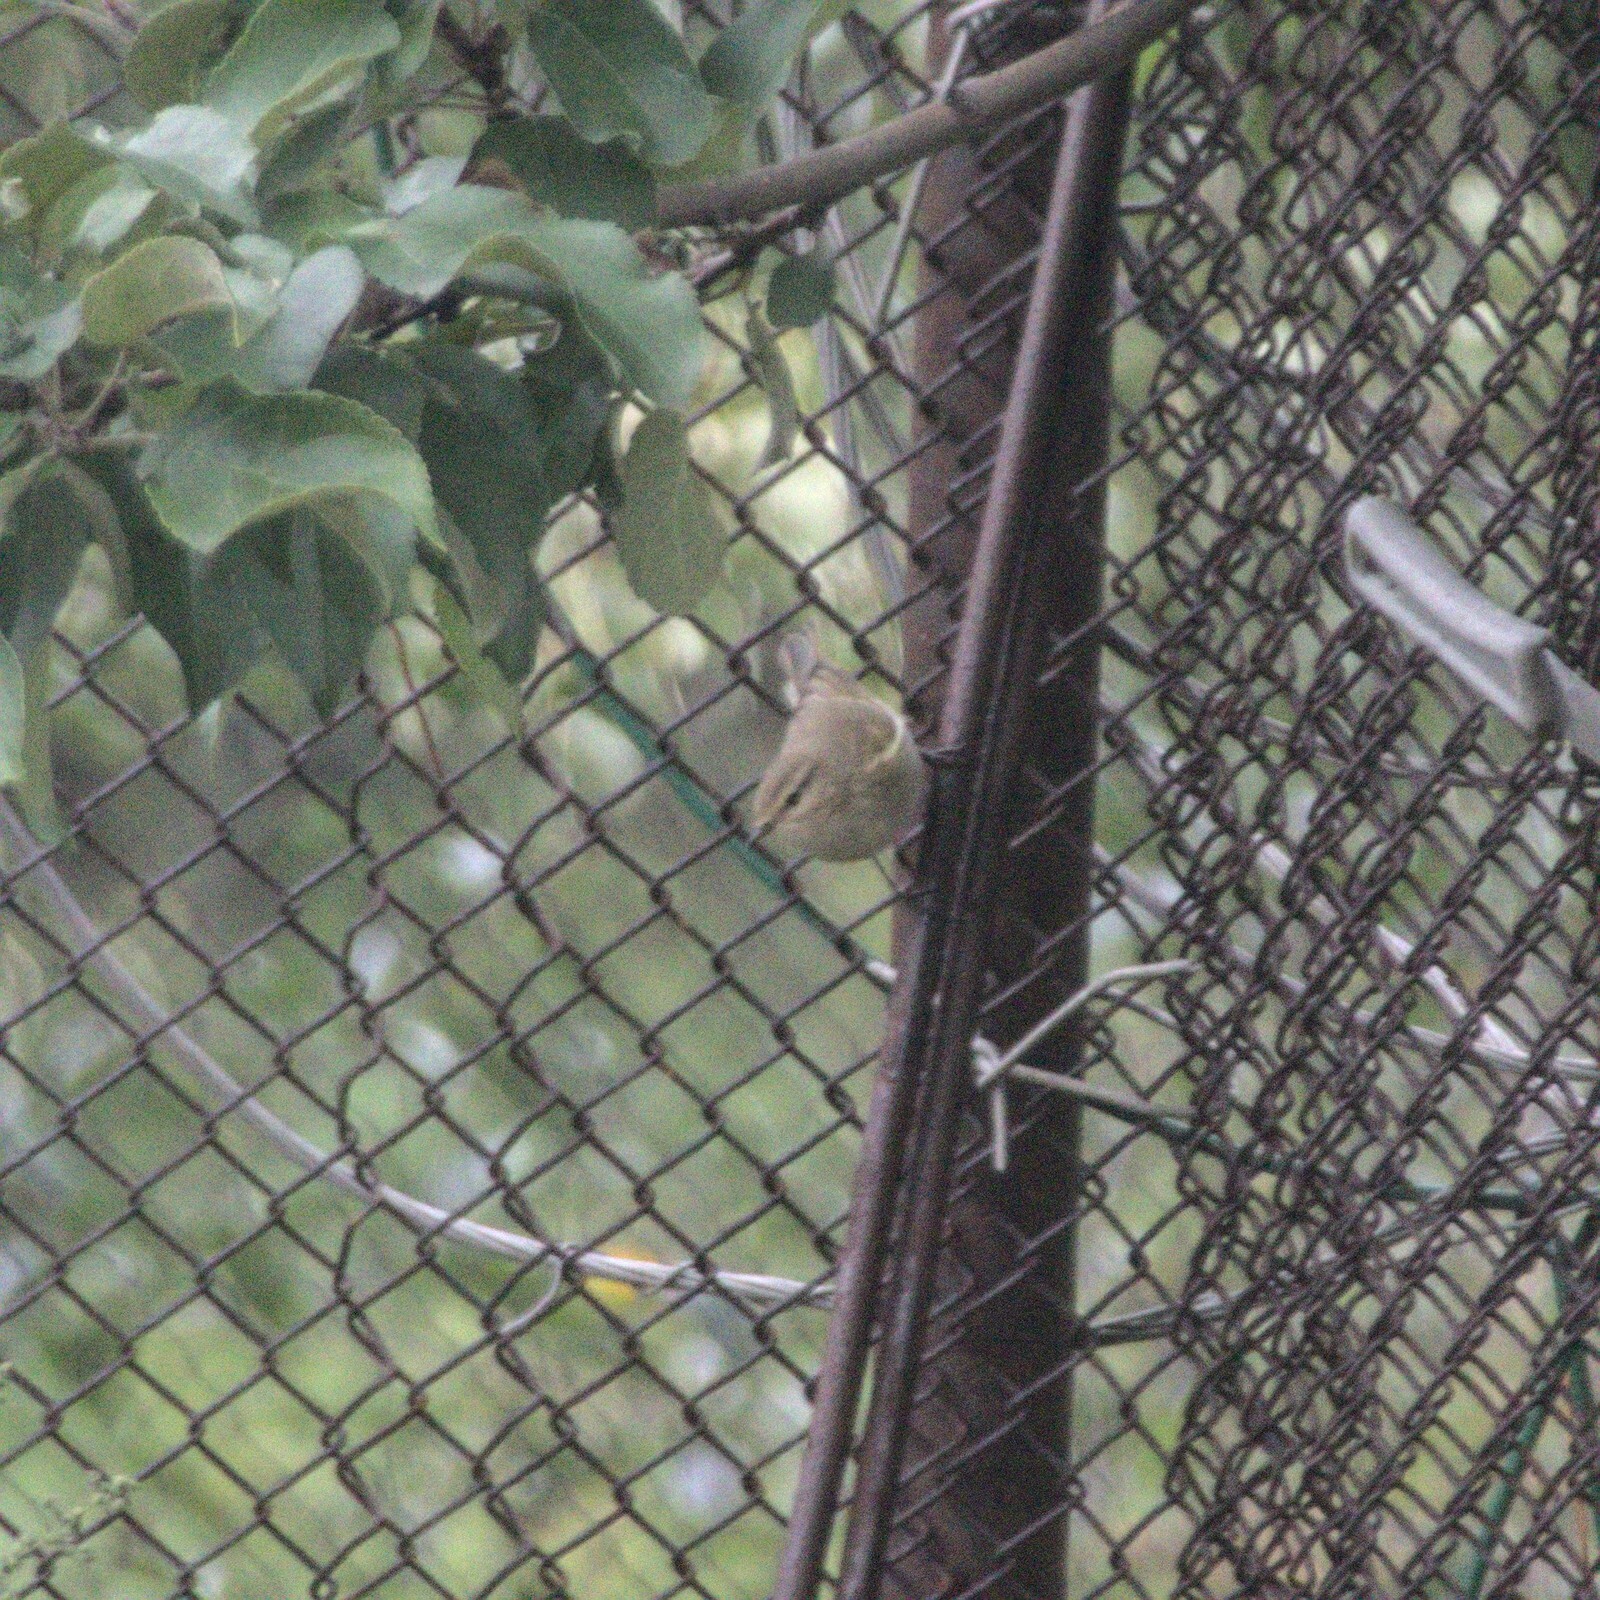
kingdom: Animalia
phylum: Chordata
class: Aves
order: Passeriformes
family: Phylloscopidae
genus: Phylloscopus
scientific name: Phylloscopus collybita
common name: Common chiffchaff
